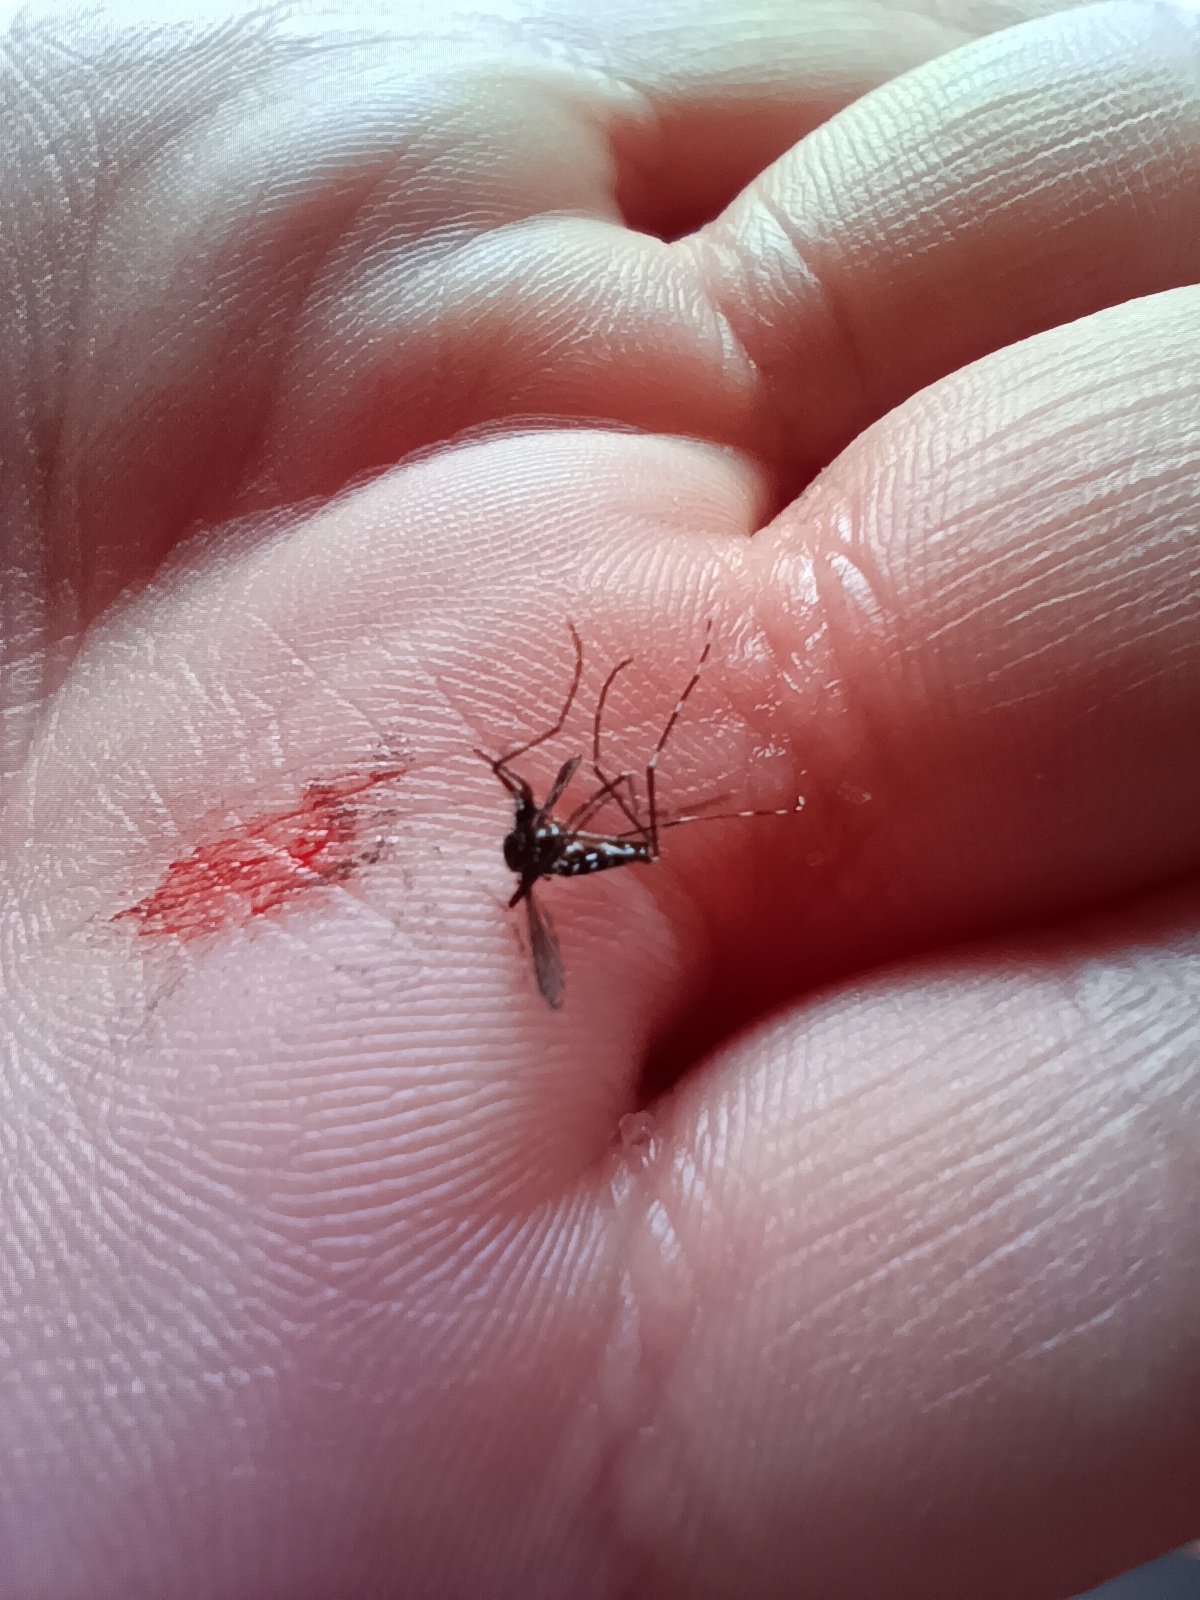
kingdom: Animalia
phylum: Arthropoda
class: Insecta
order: Diptera
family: Culicidae
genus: Aedes
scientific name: Aedes albopictus
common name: Tiger mosquito
